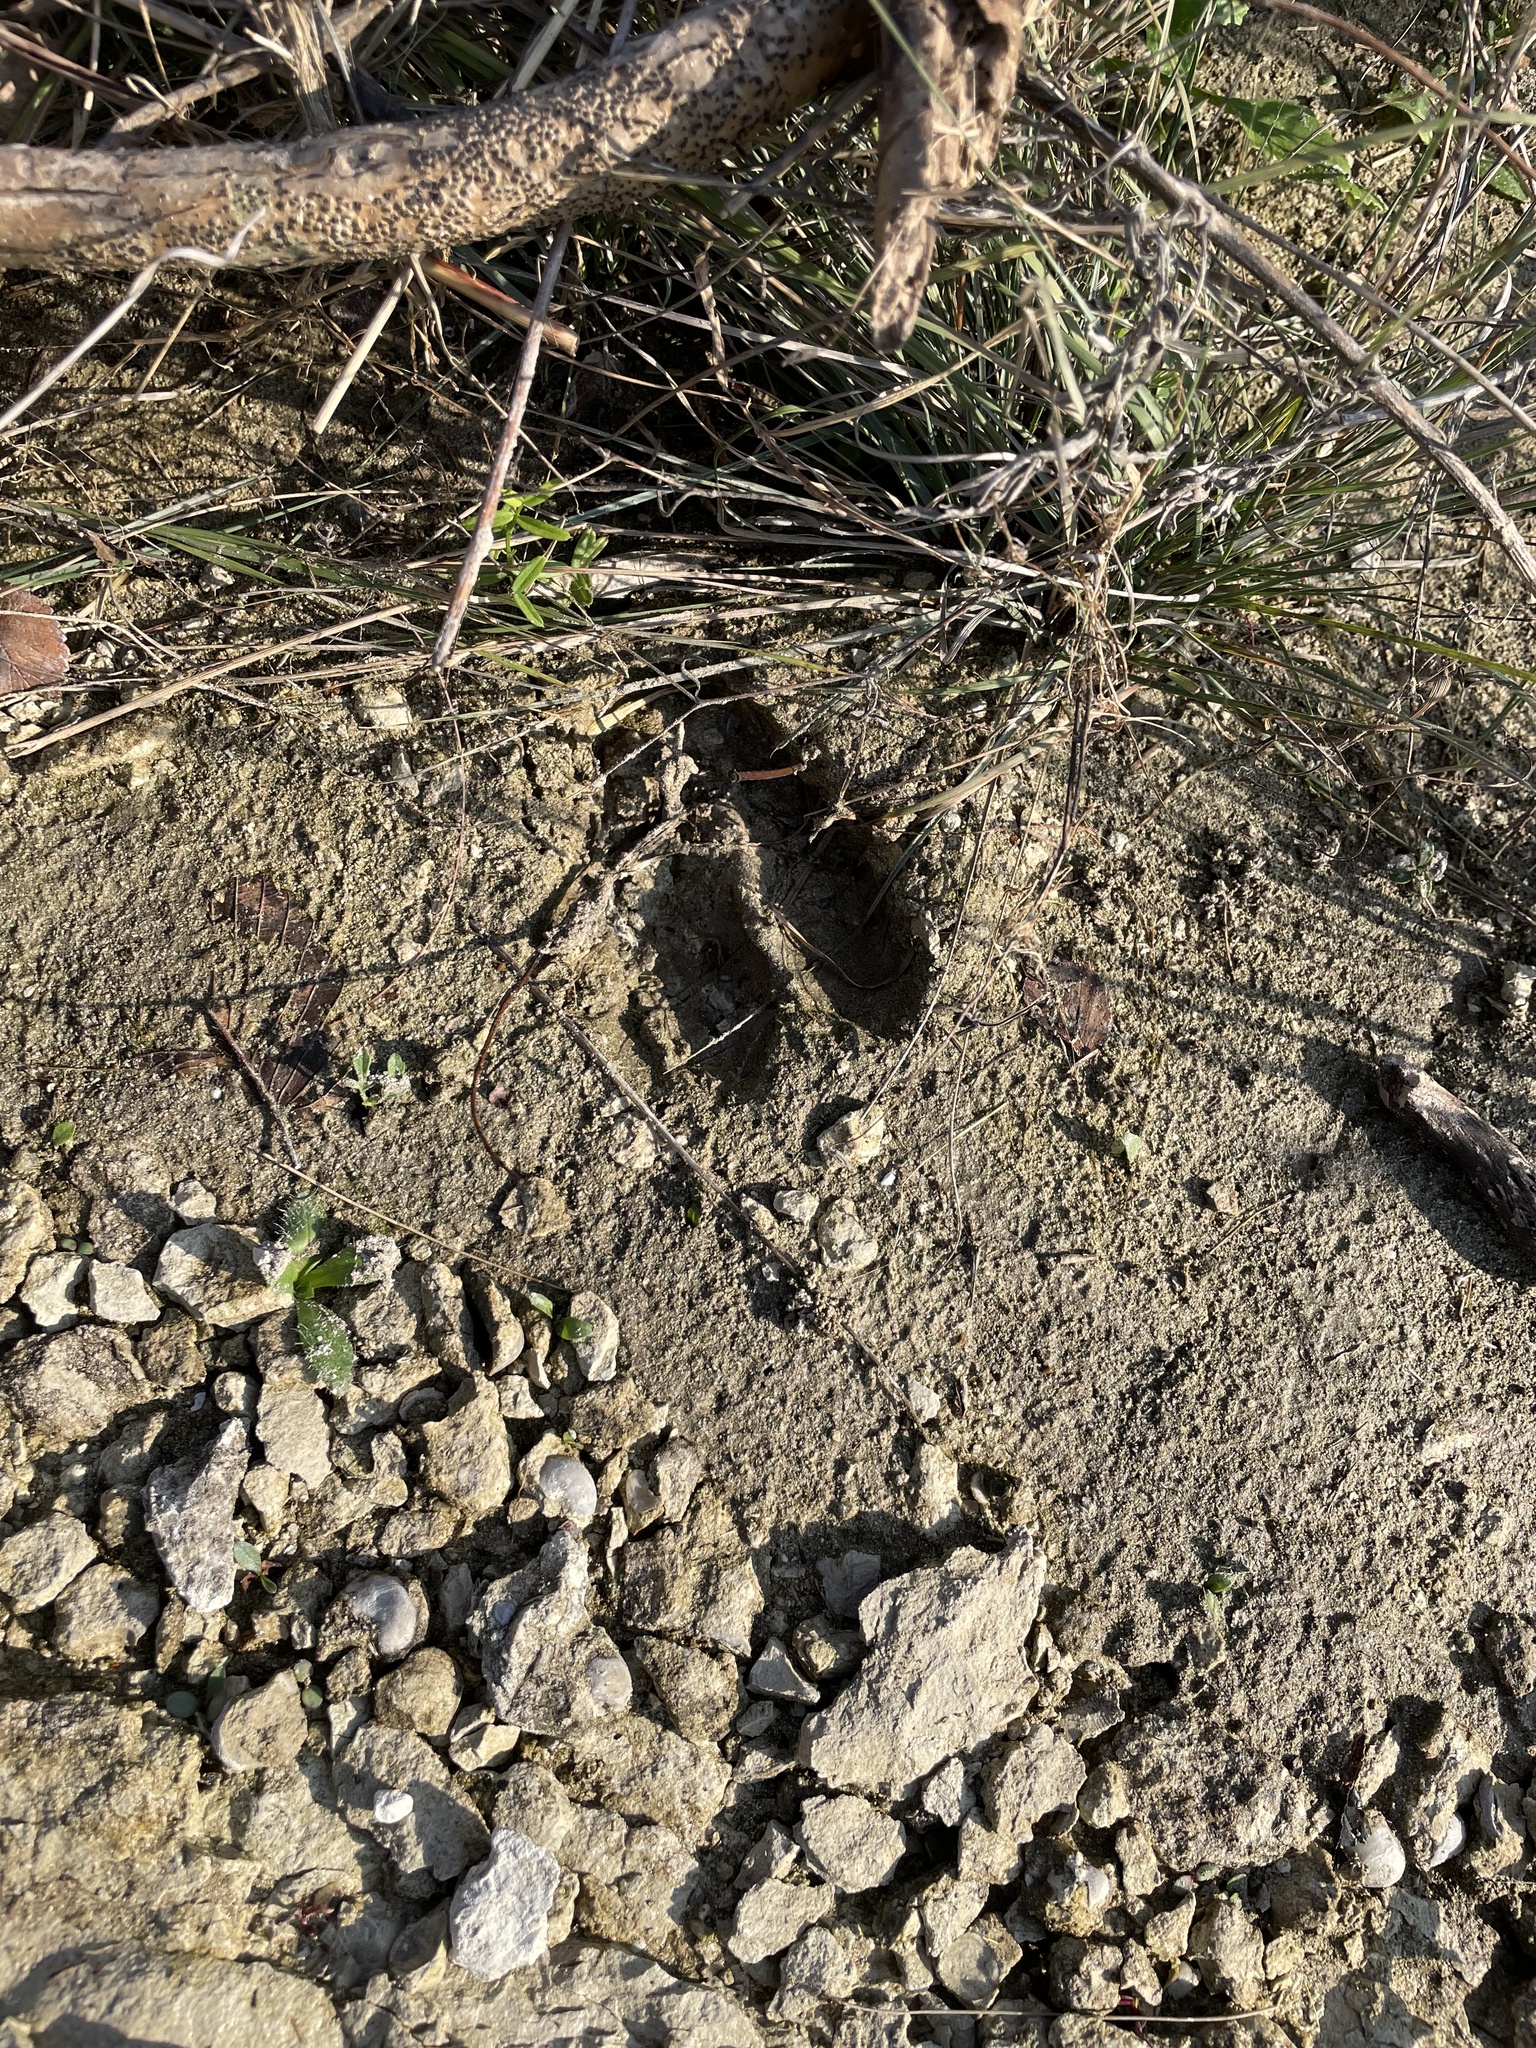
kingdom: Animalia
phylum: Chordata
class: Mammalia
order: Artiodactyla
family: Cervidae
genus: Odocoileus
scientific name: Odocoileus virginianus
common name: White-tailed deer
